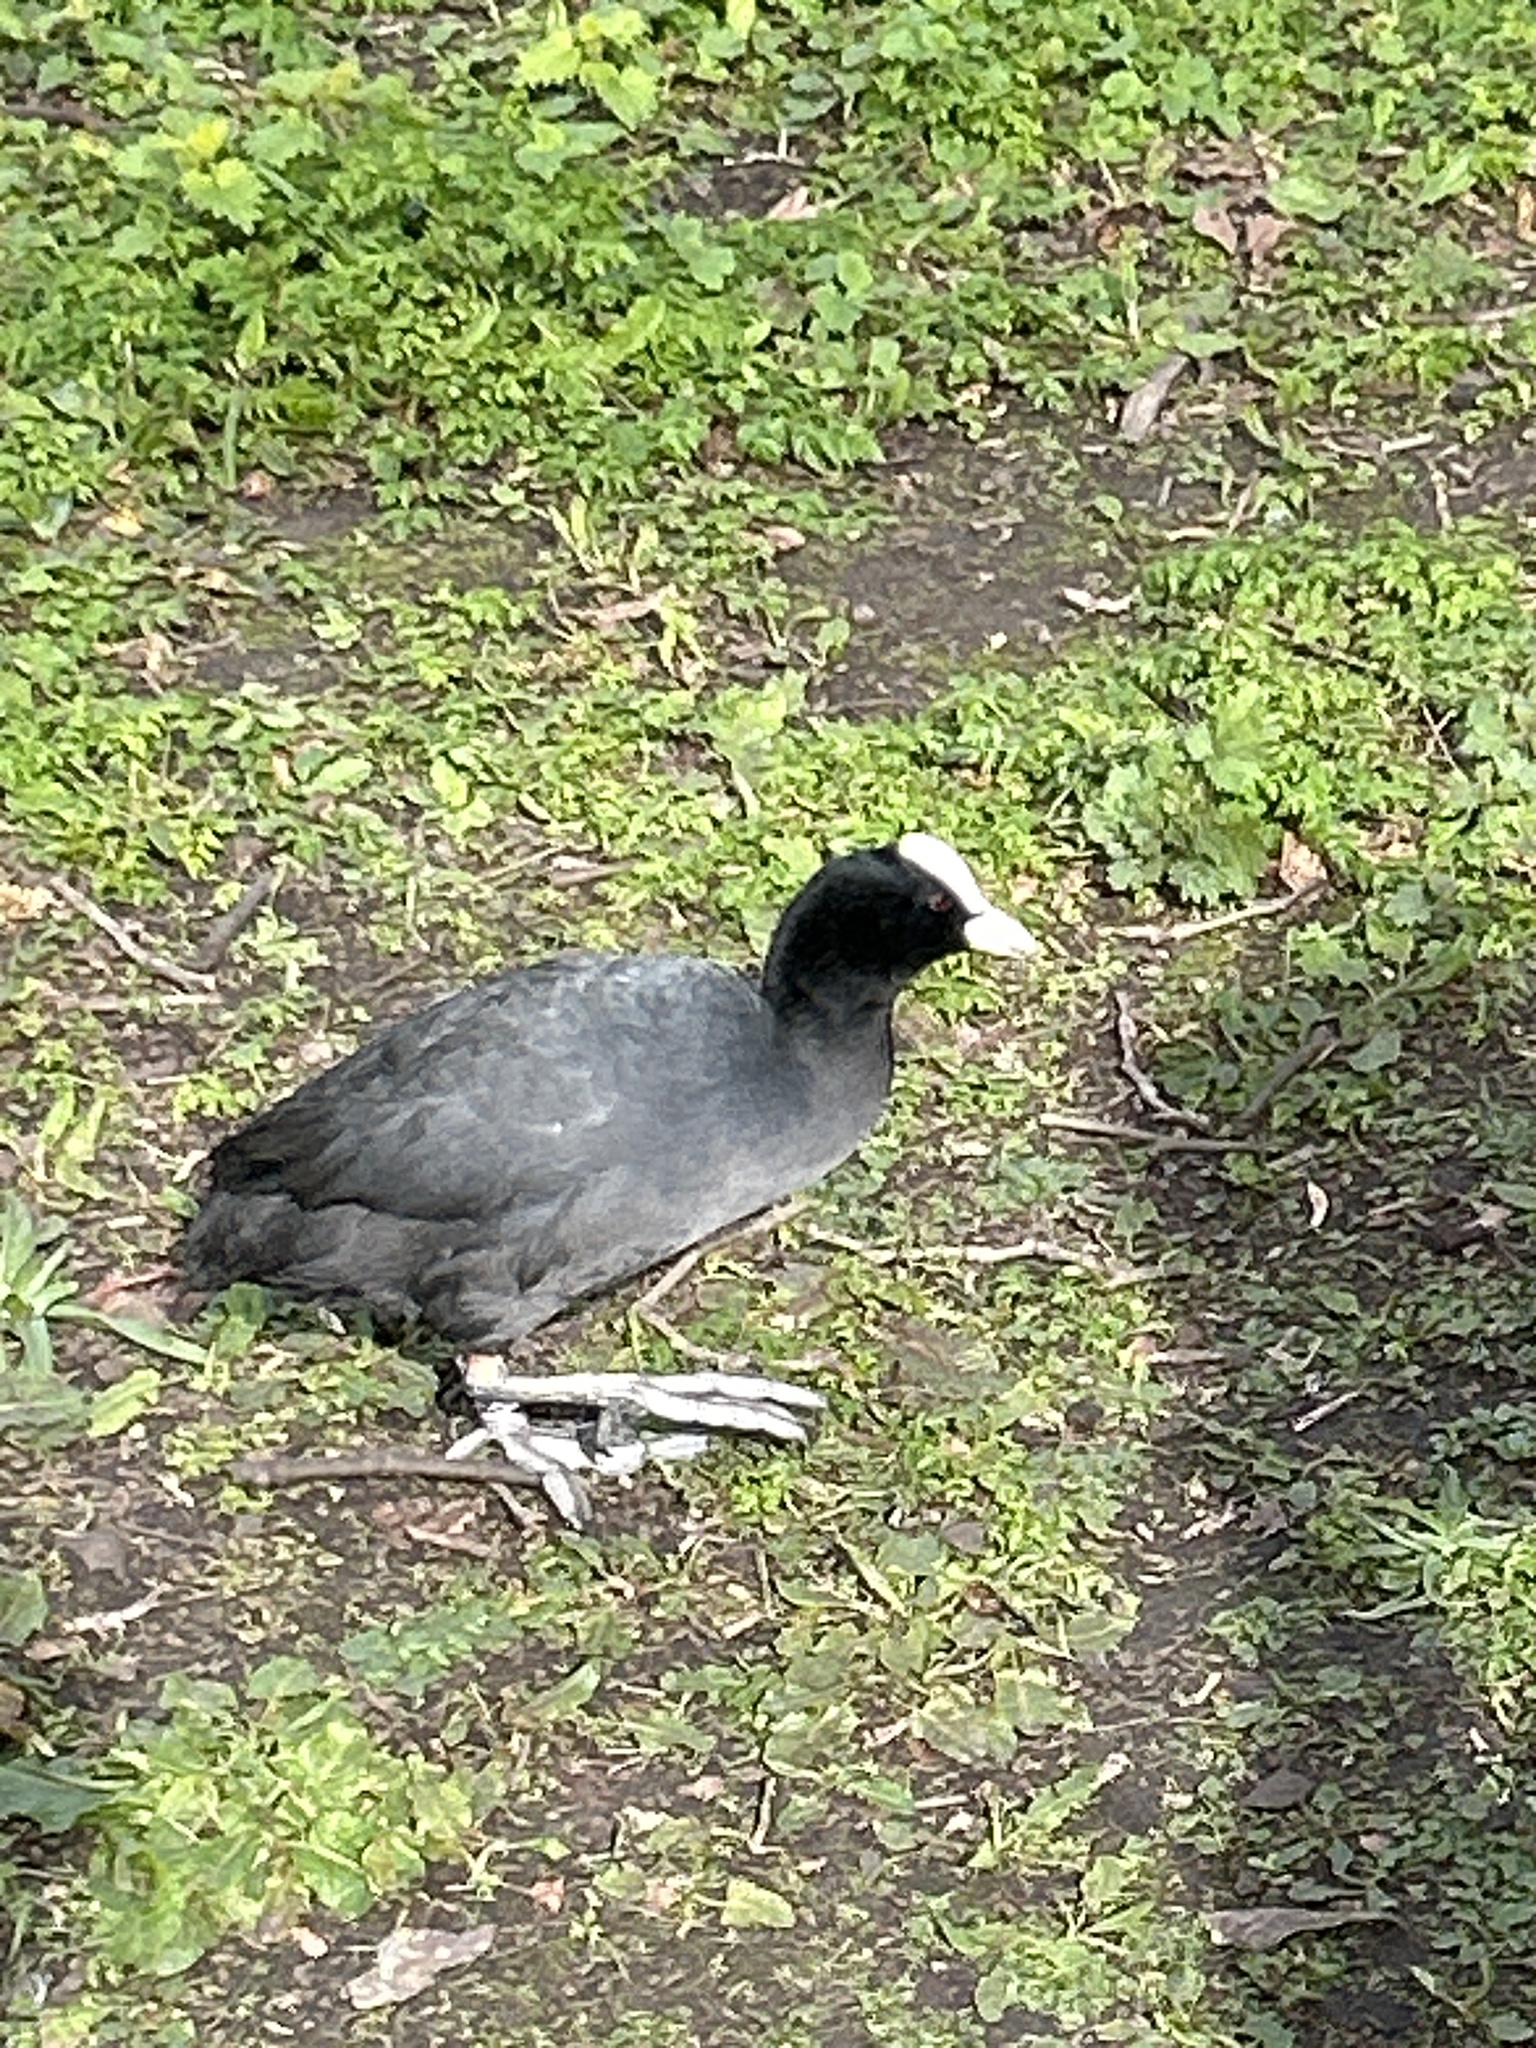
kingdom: Animalia
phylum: Chordata
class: Aves
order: Gruiformes
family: Rallidae
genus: Fulica
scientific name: Fulica atra
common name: Eurasian coot
